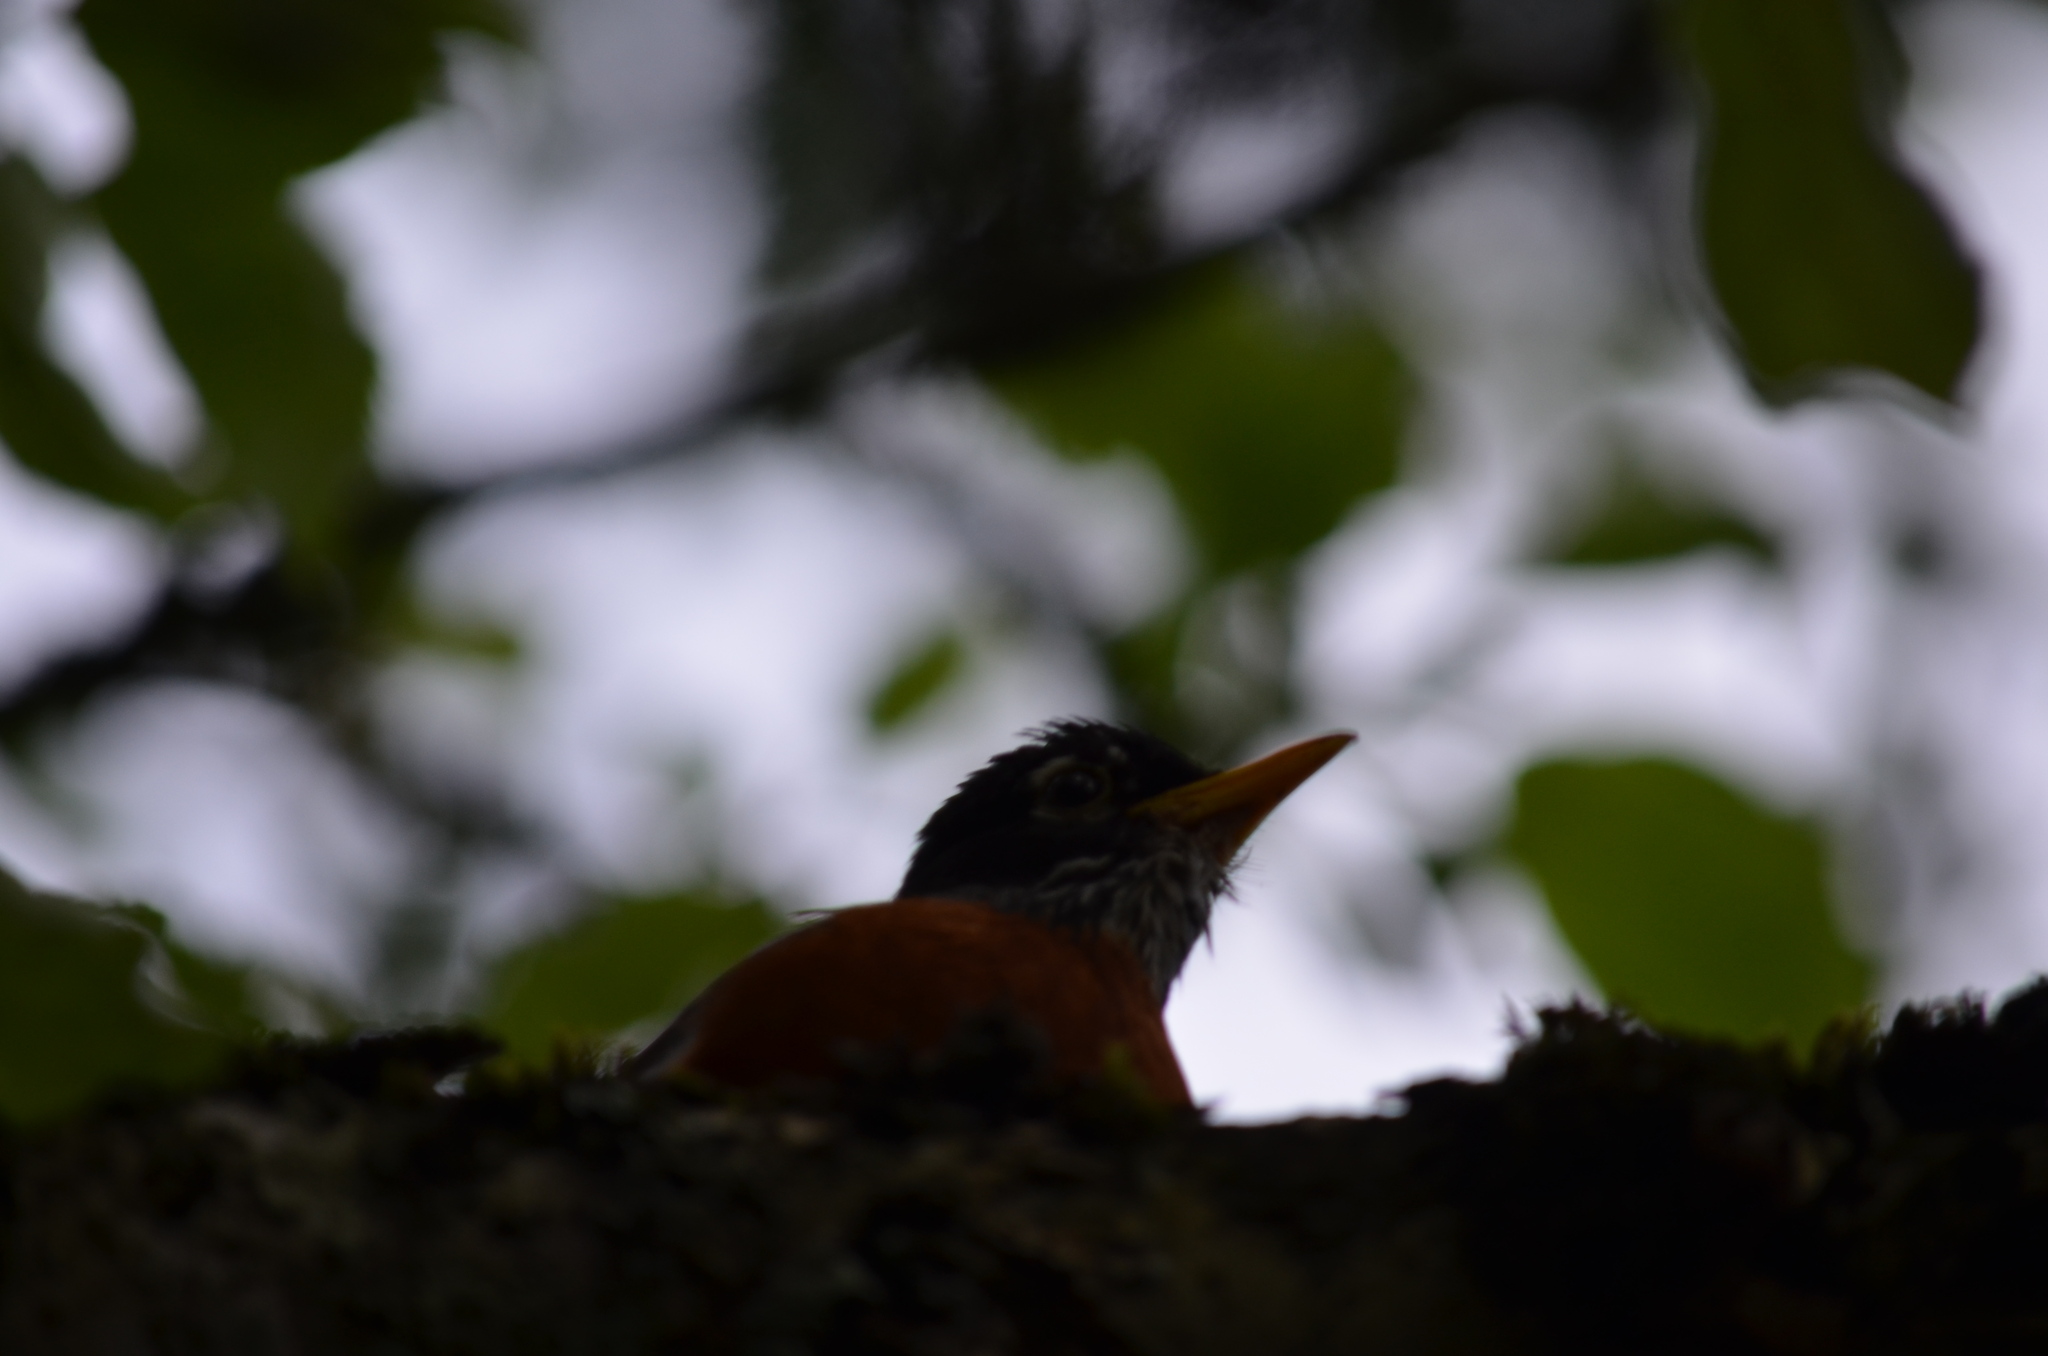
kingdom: Animalia
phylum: Chordata
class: Aves
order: Passeriformes
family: Turdidae
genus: Turdus
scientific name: Turdus migratorius
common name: American robin
